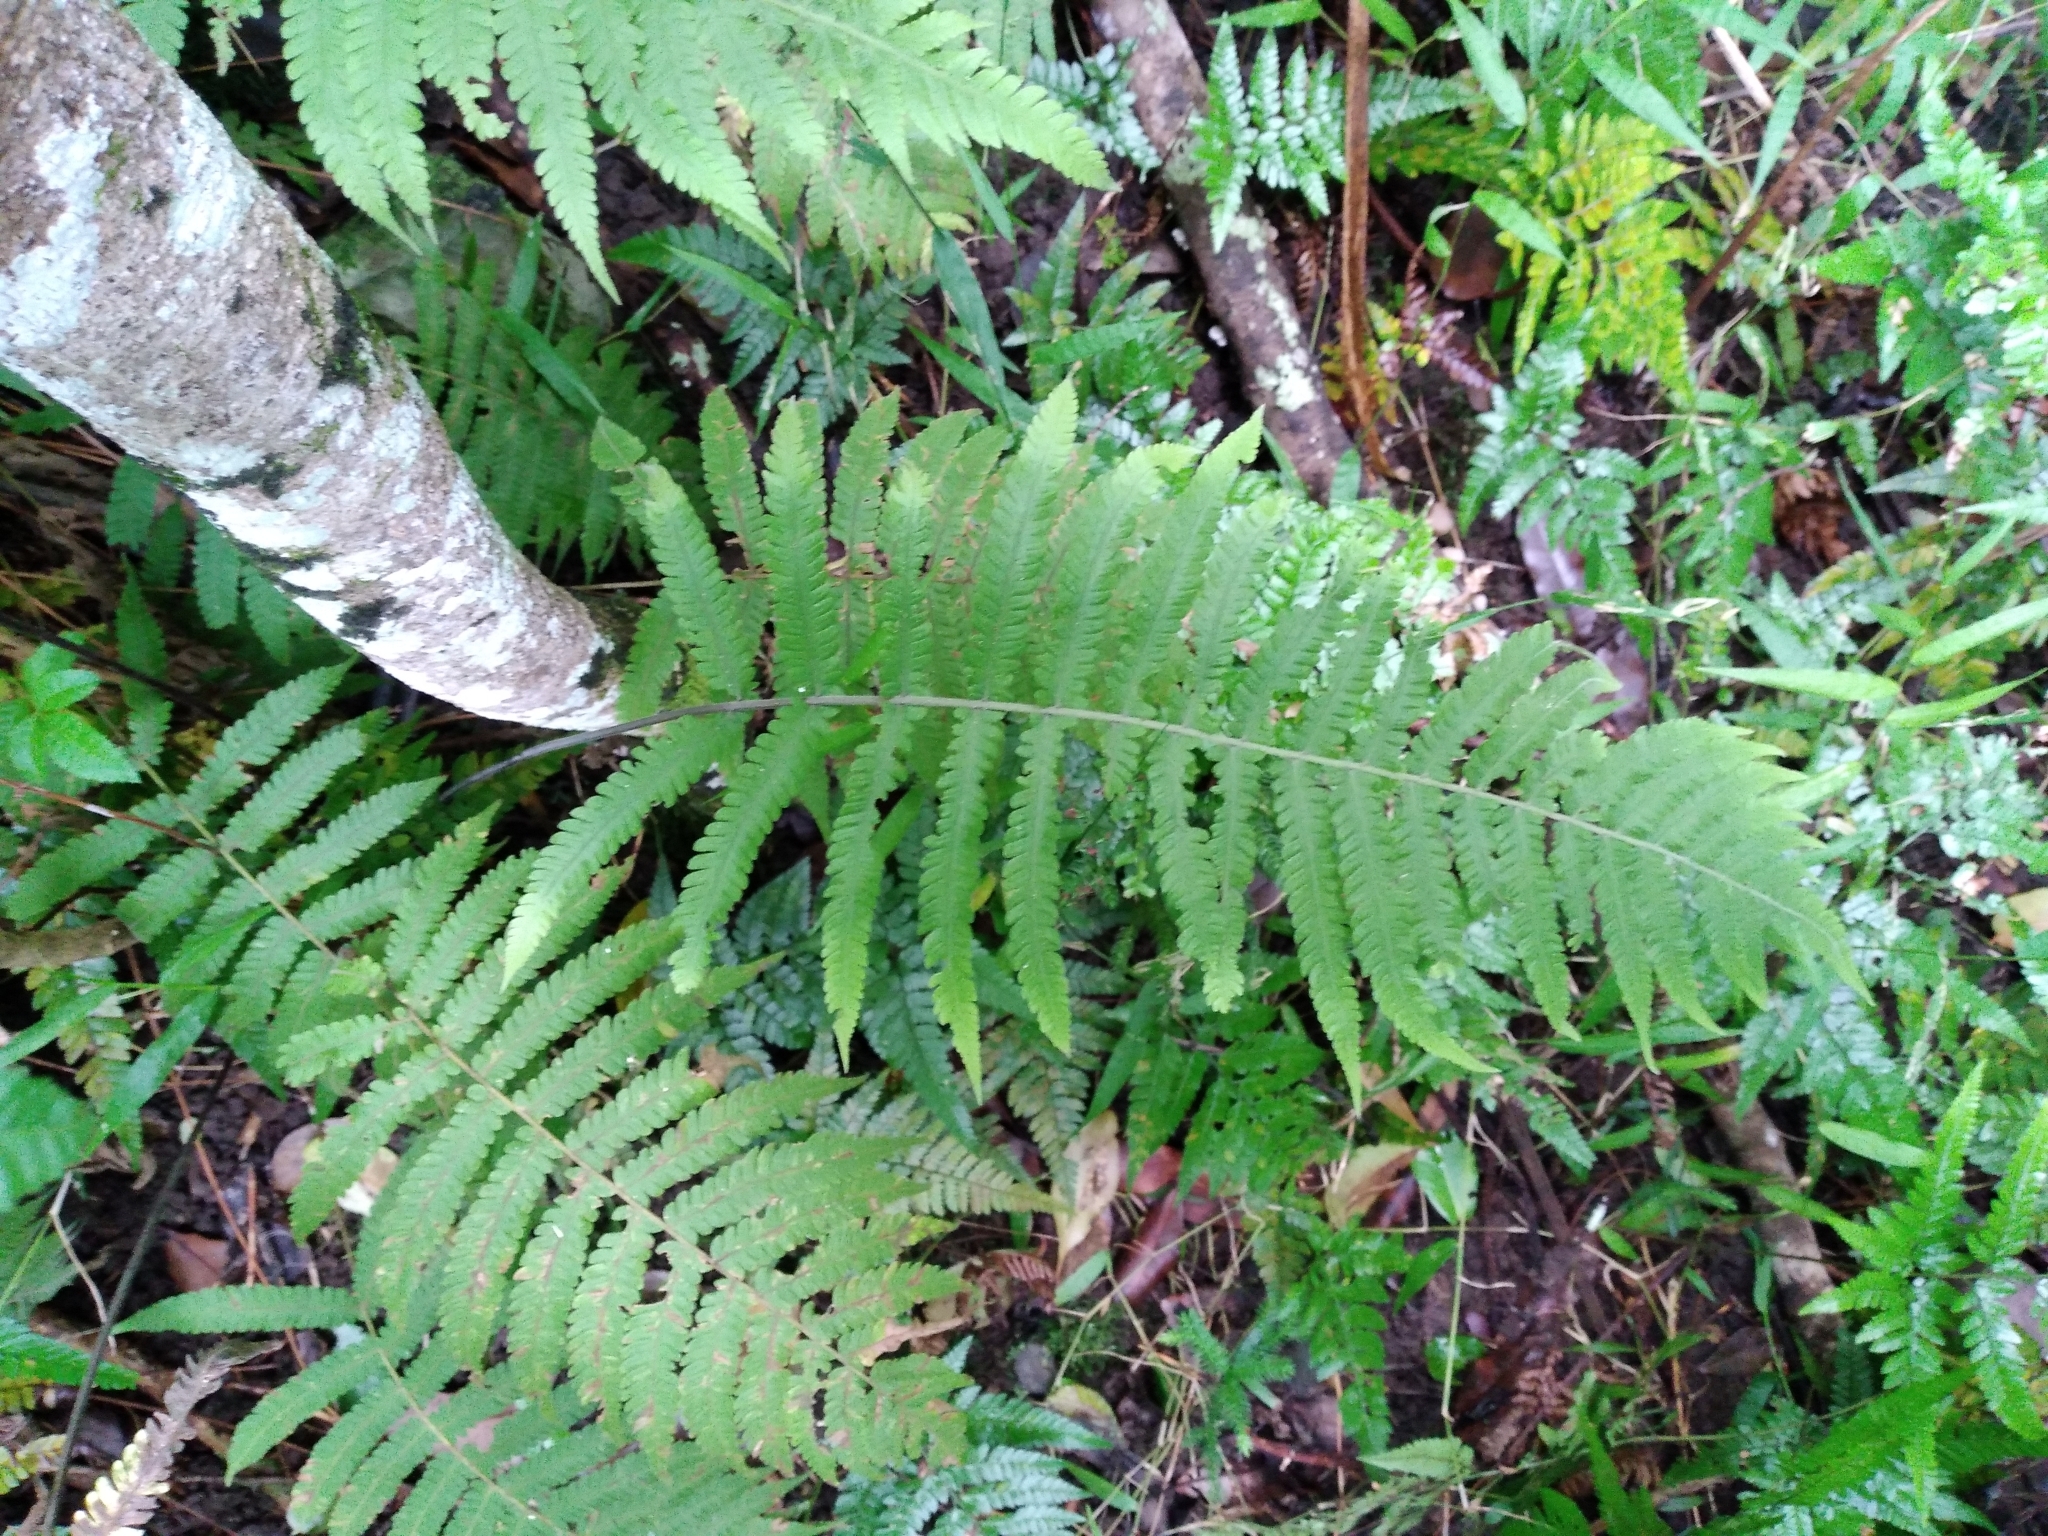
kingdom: Plantae
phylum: Tracheophyta
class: Polypodiopsida
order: Polypodiales
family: Thelypteridaceae
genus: Christella
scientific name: Christella parasitica
